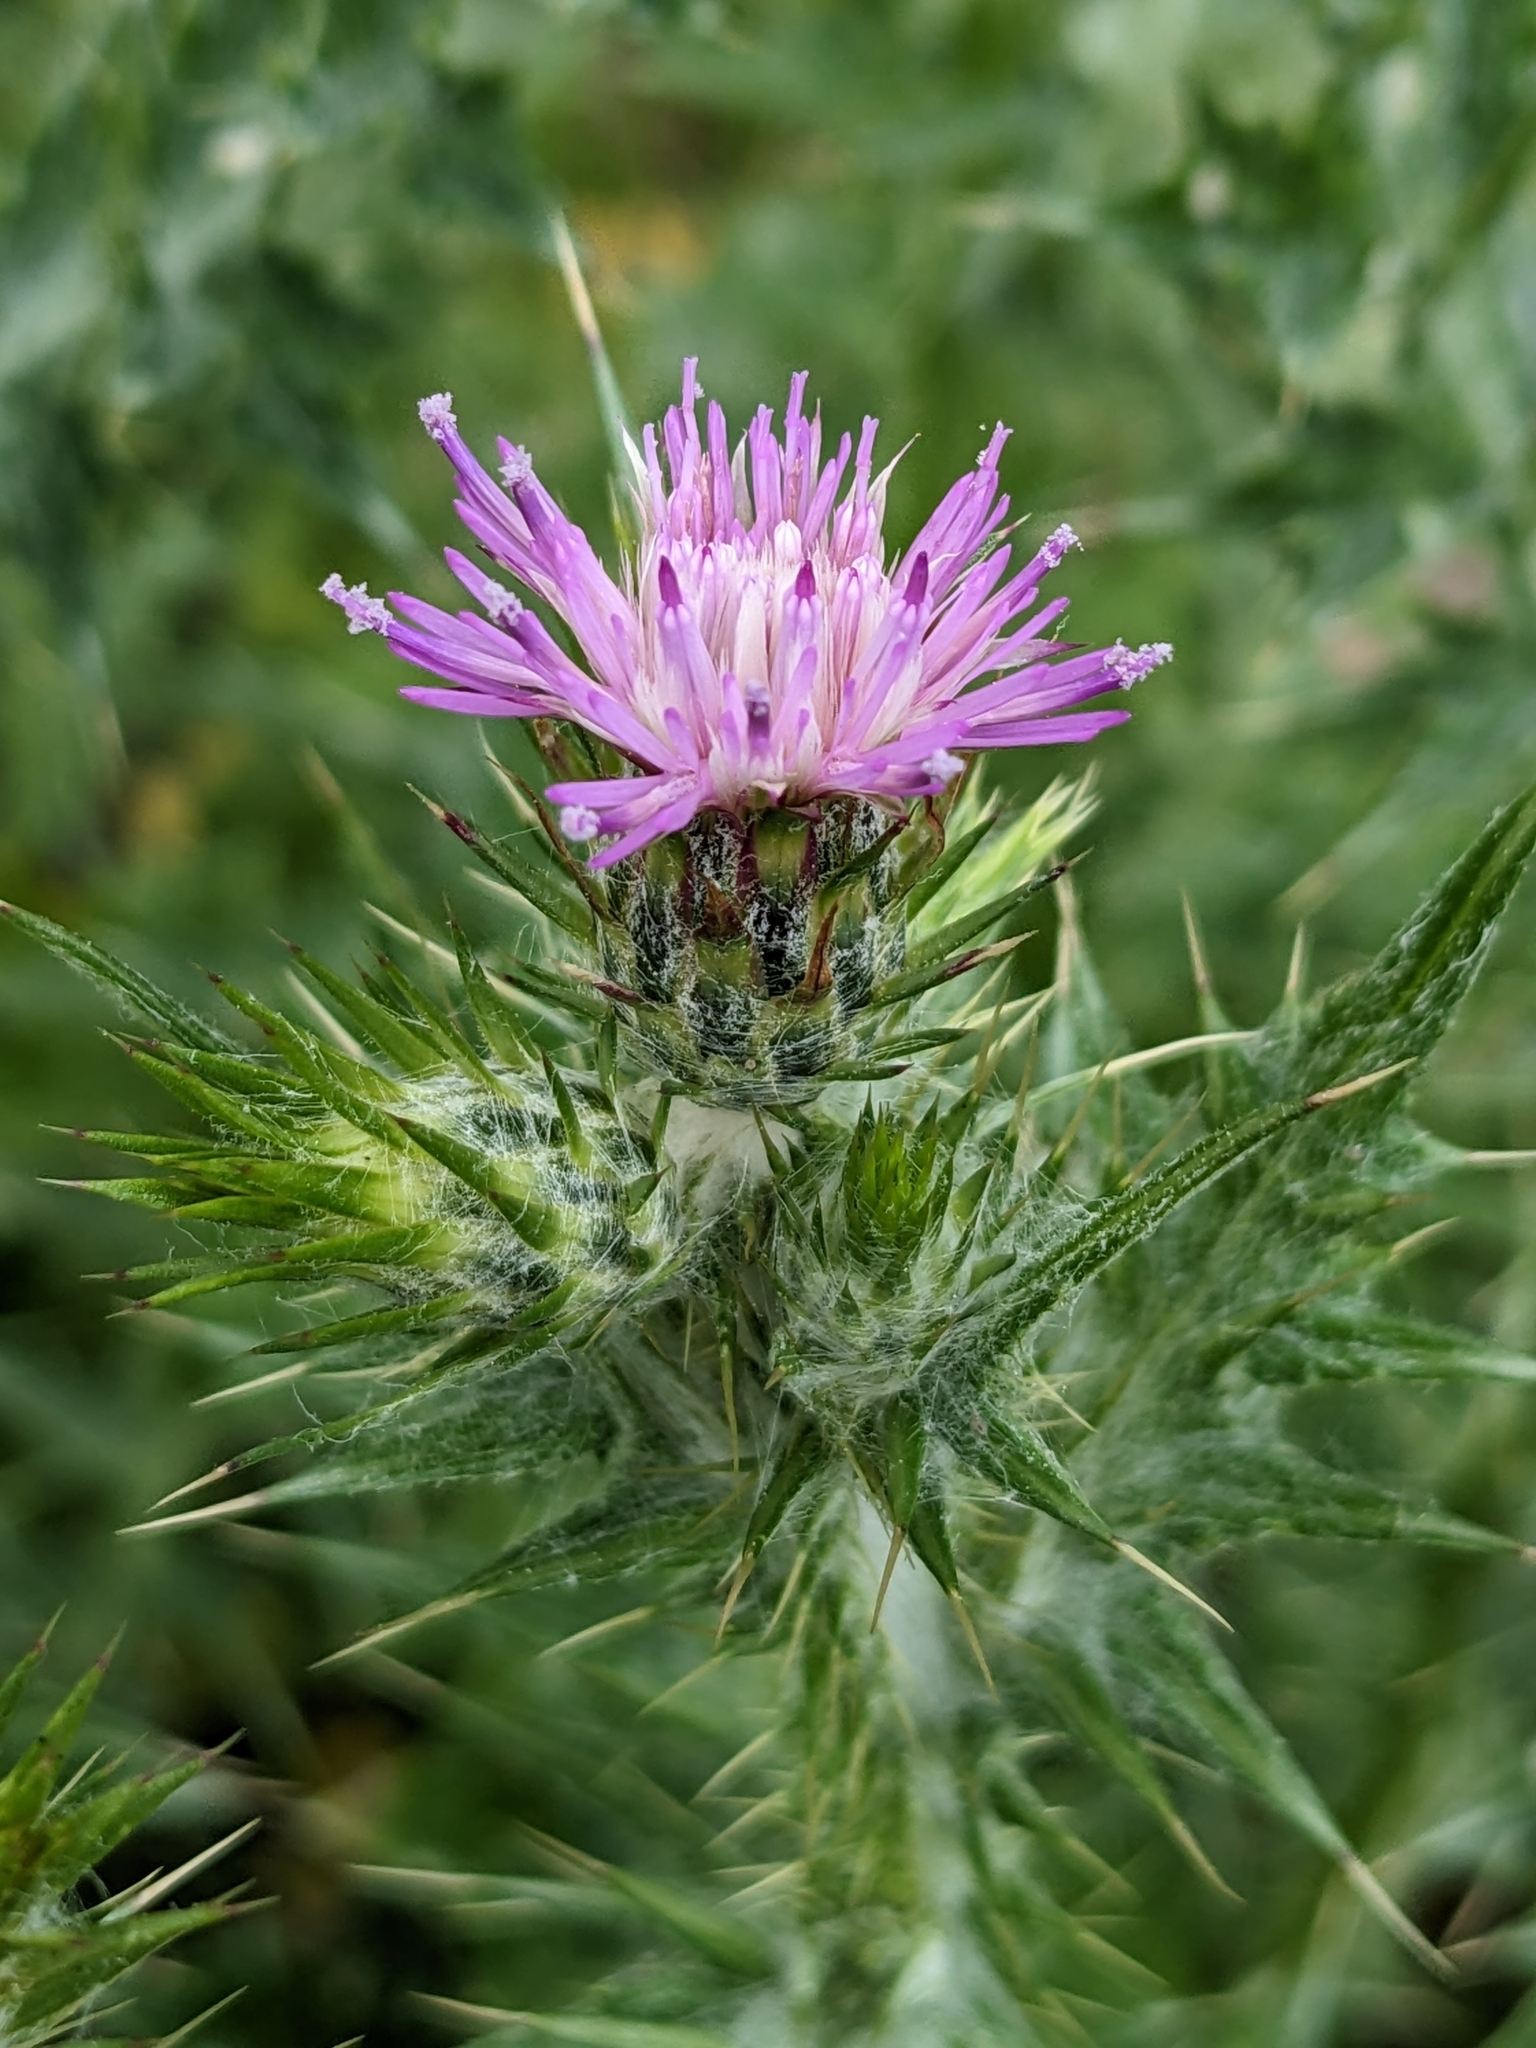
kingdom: Plantae
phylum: Tracheophyta
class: Magnoliopsida
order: Asterales
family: Asteraceae
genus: Carduus
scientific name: Carduus pycnocephalus
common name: Plymouth thistle
